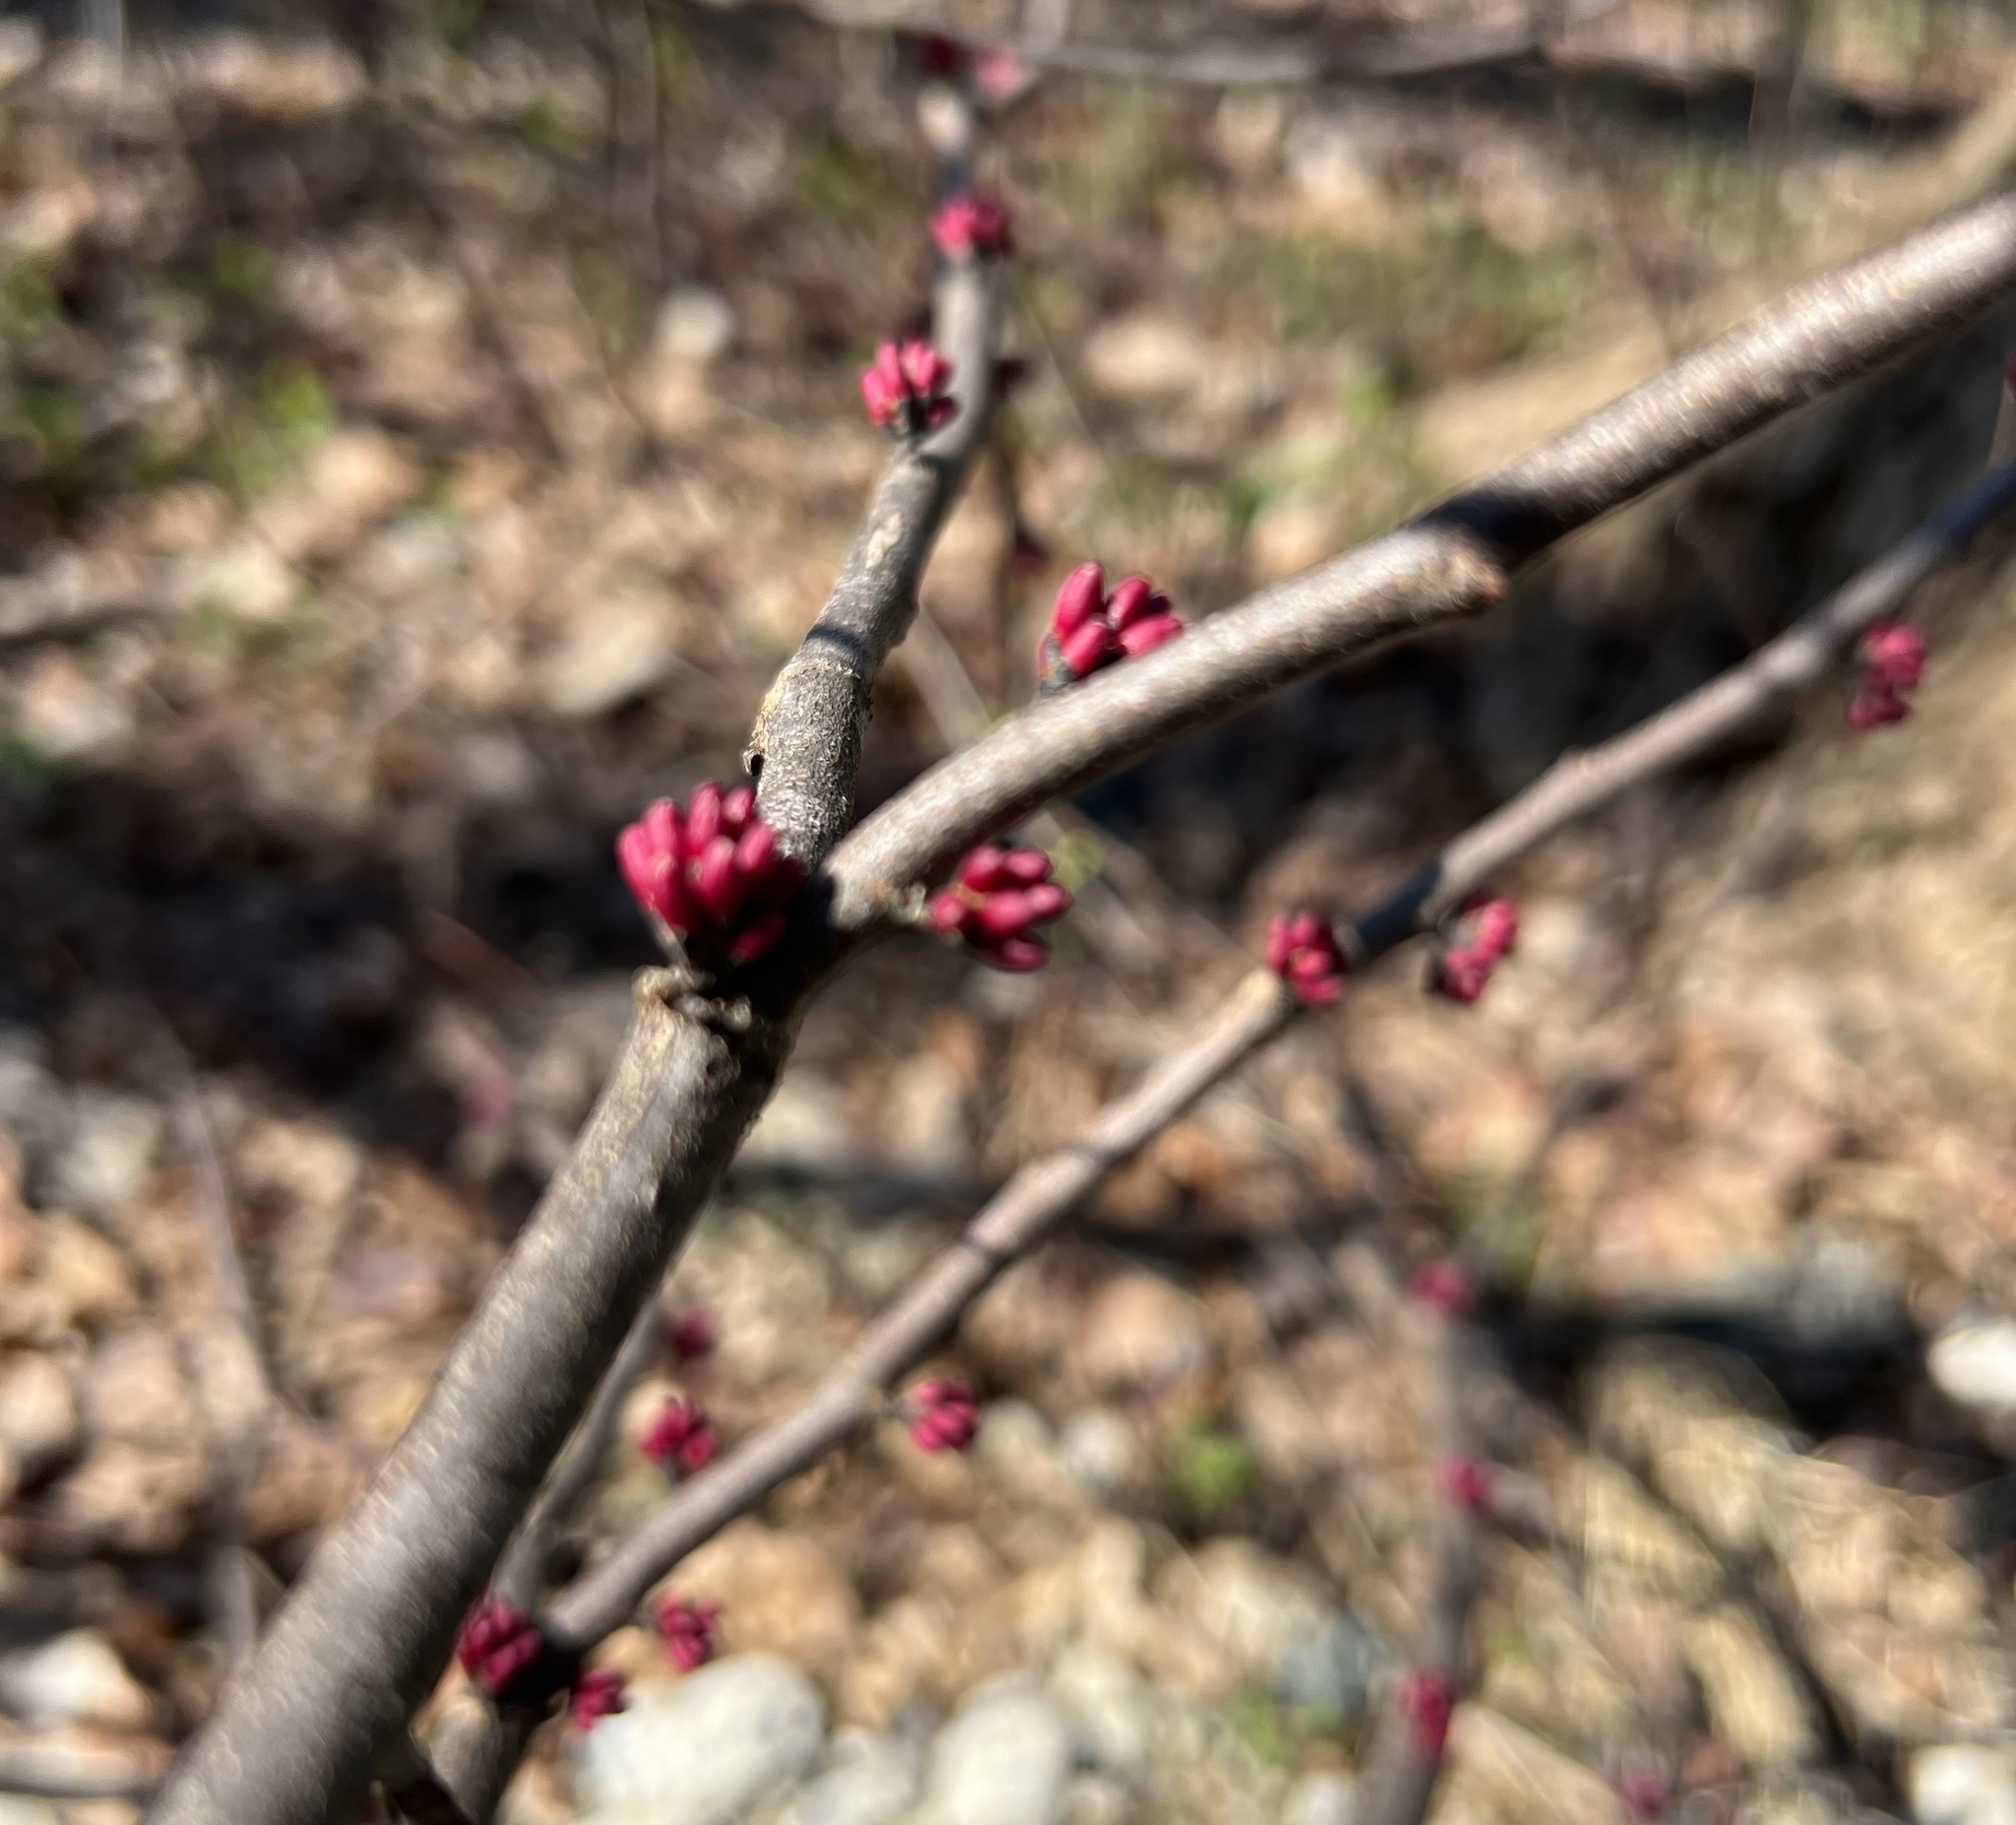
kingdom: Plantae
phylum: Tracheophyta
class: Magnoliopsida
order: Fabales
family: Fabaceae
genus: Cercis
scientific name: Cercis canadensis
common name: Eastern redbud
